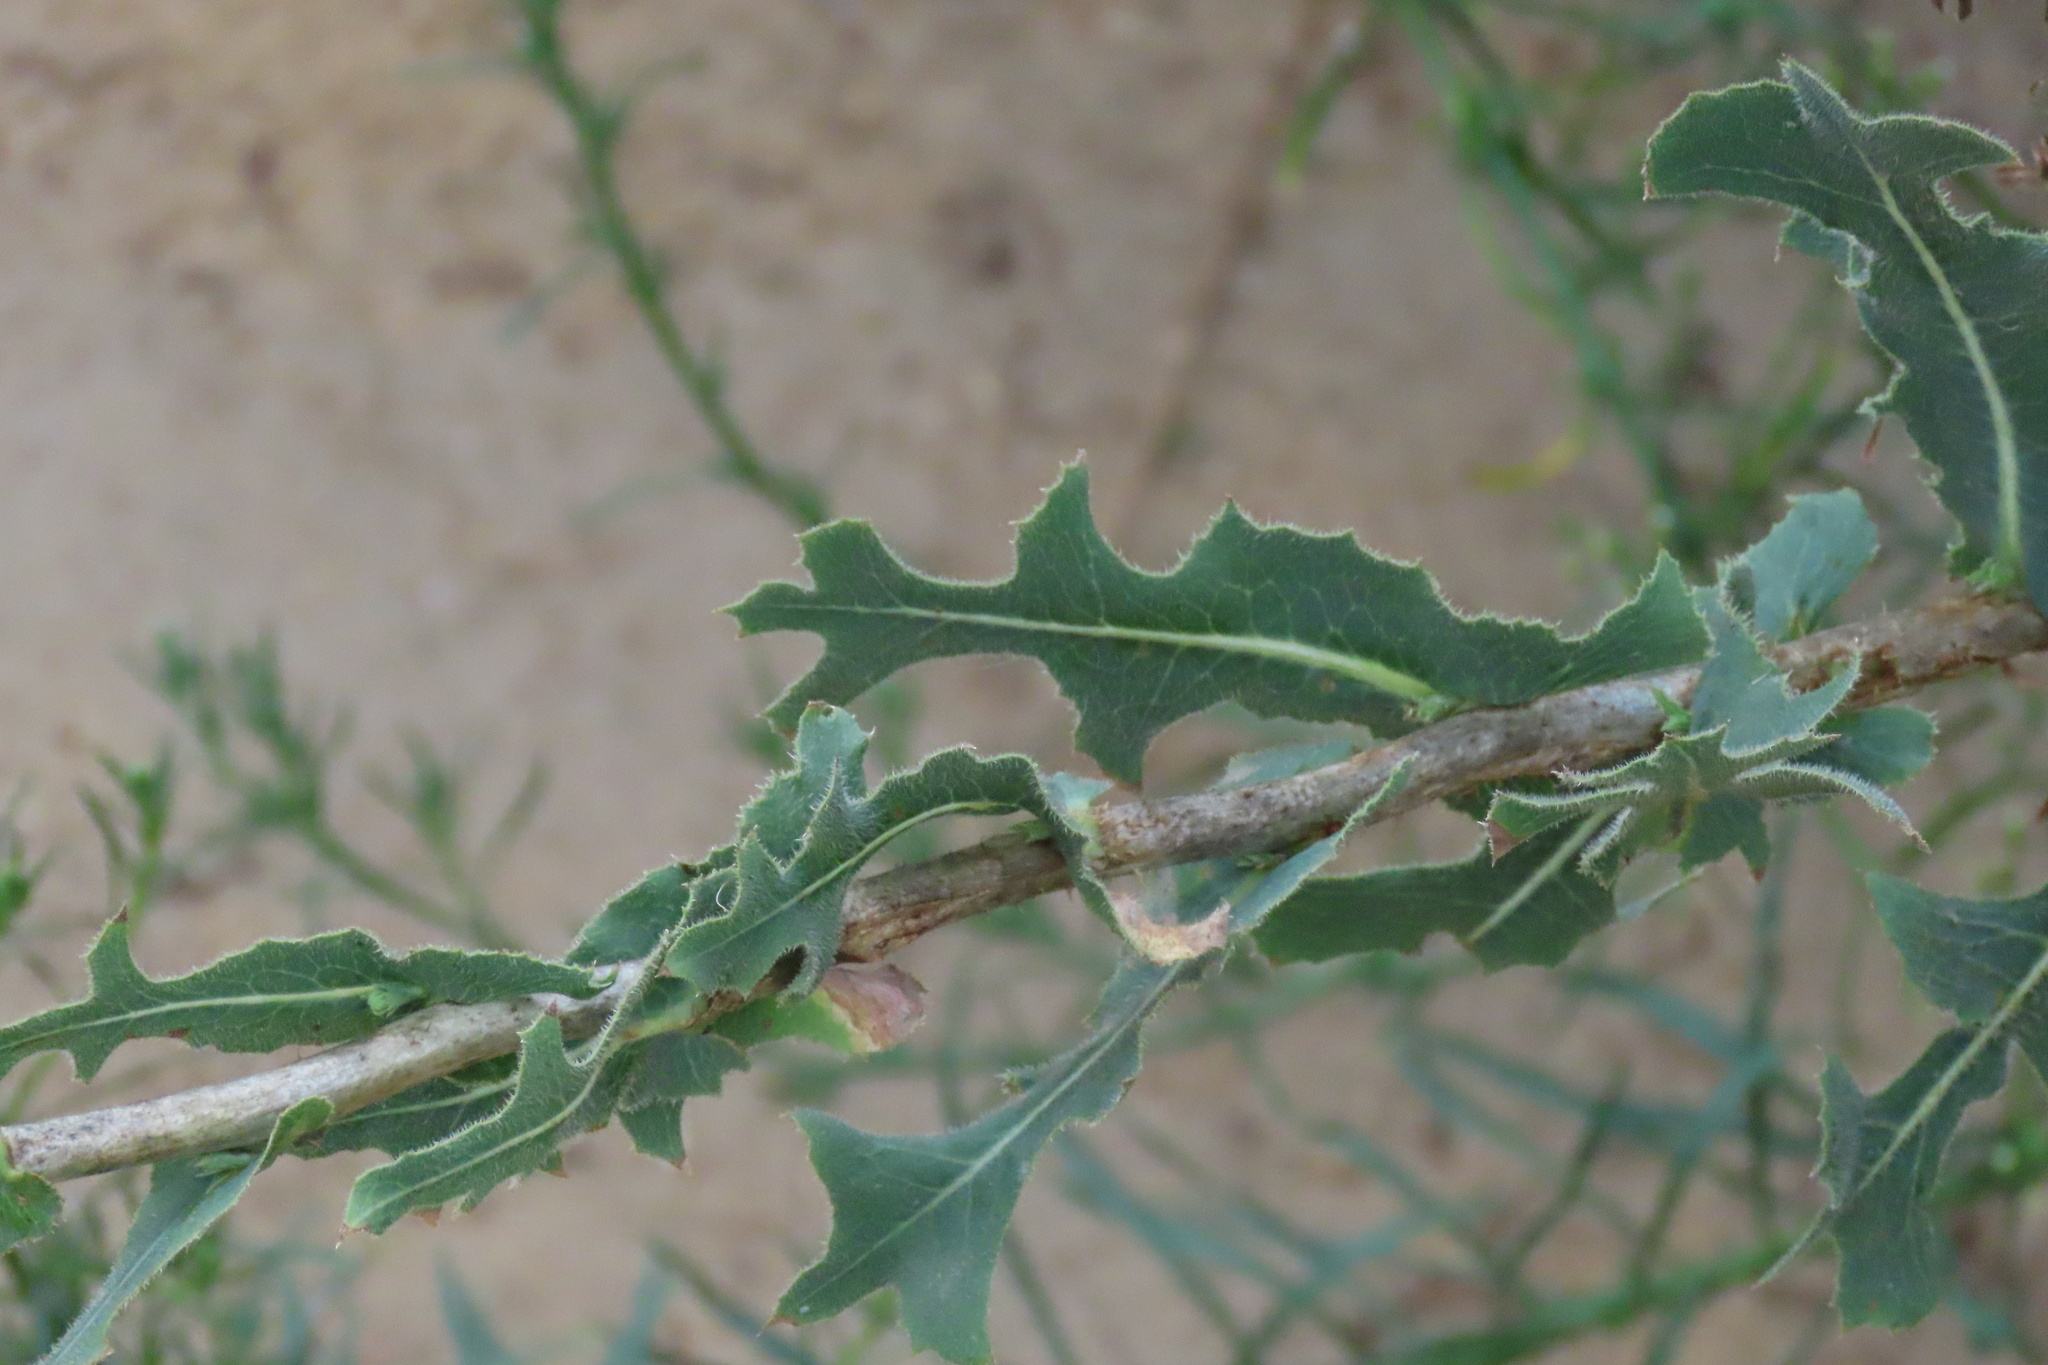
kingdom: Plantae
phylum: Tracheophyta
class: Magnoliopsida
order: Asterales
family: Asteraceae
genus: Lactuca
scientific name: Lactuca serriola
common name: Prickly lettuce
